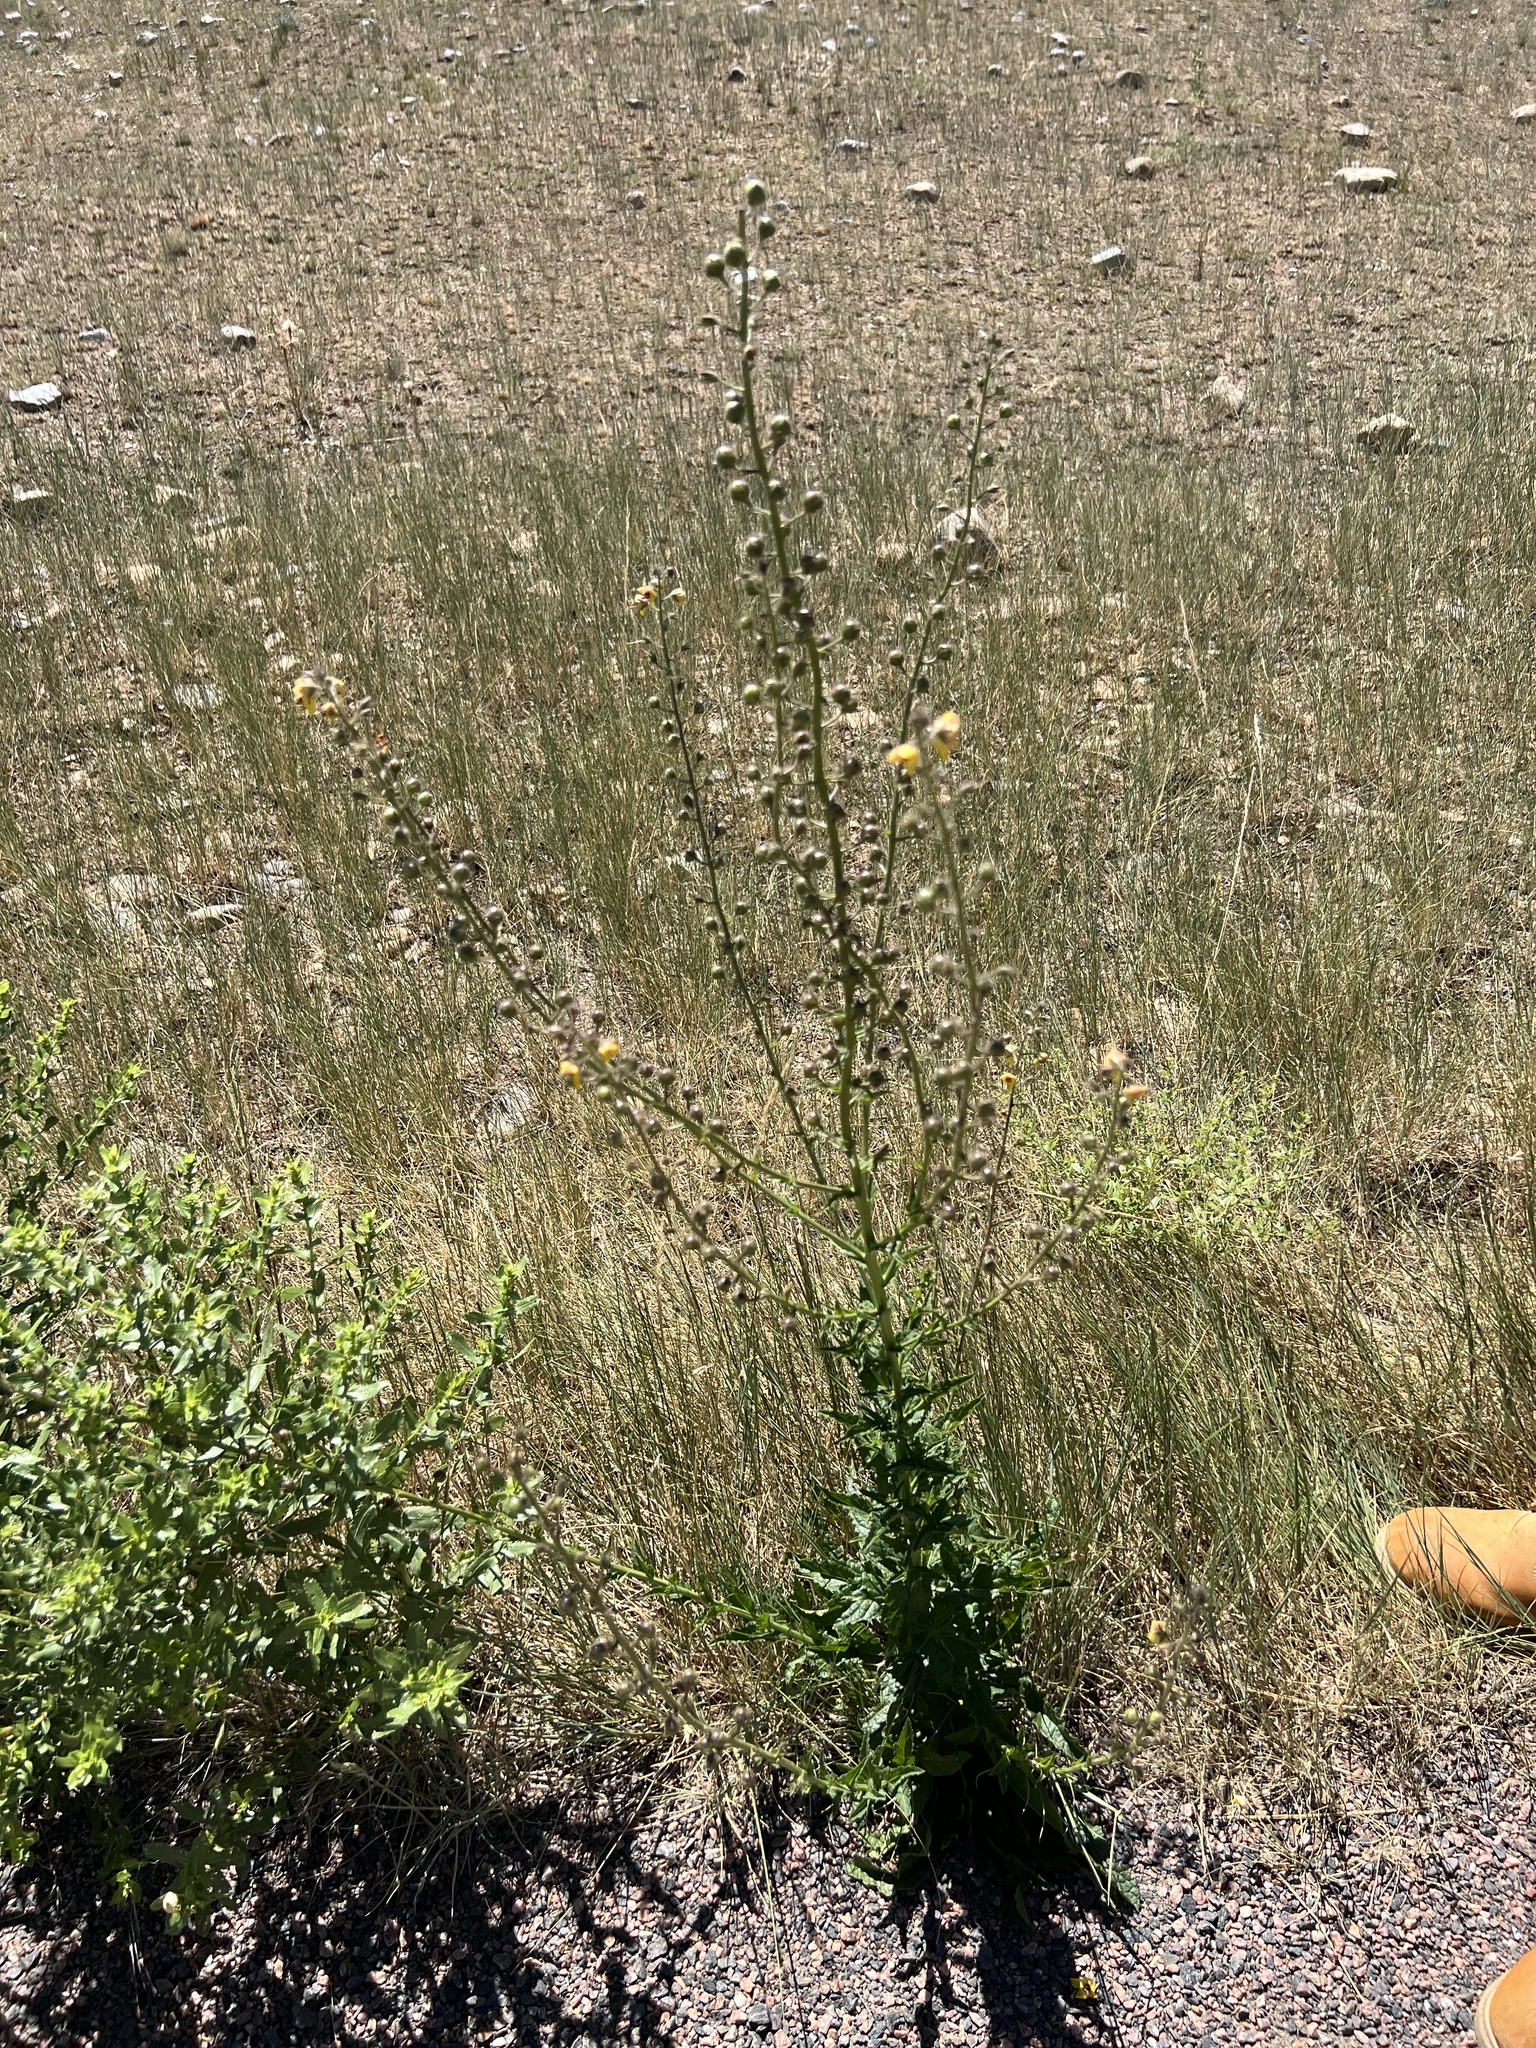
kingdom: Plantae
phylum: Tracheophyta
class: Magnoliopsida
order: Lamiales
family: Scrophulariaceae
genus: Verbascum
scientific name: Verbascum blattaria
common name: Moth mullein
